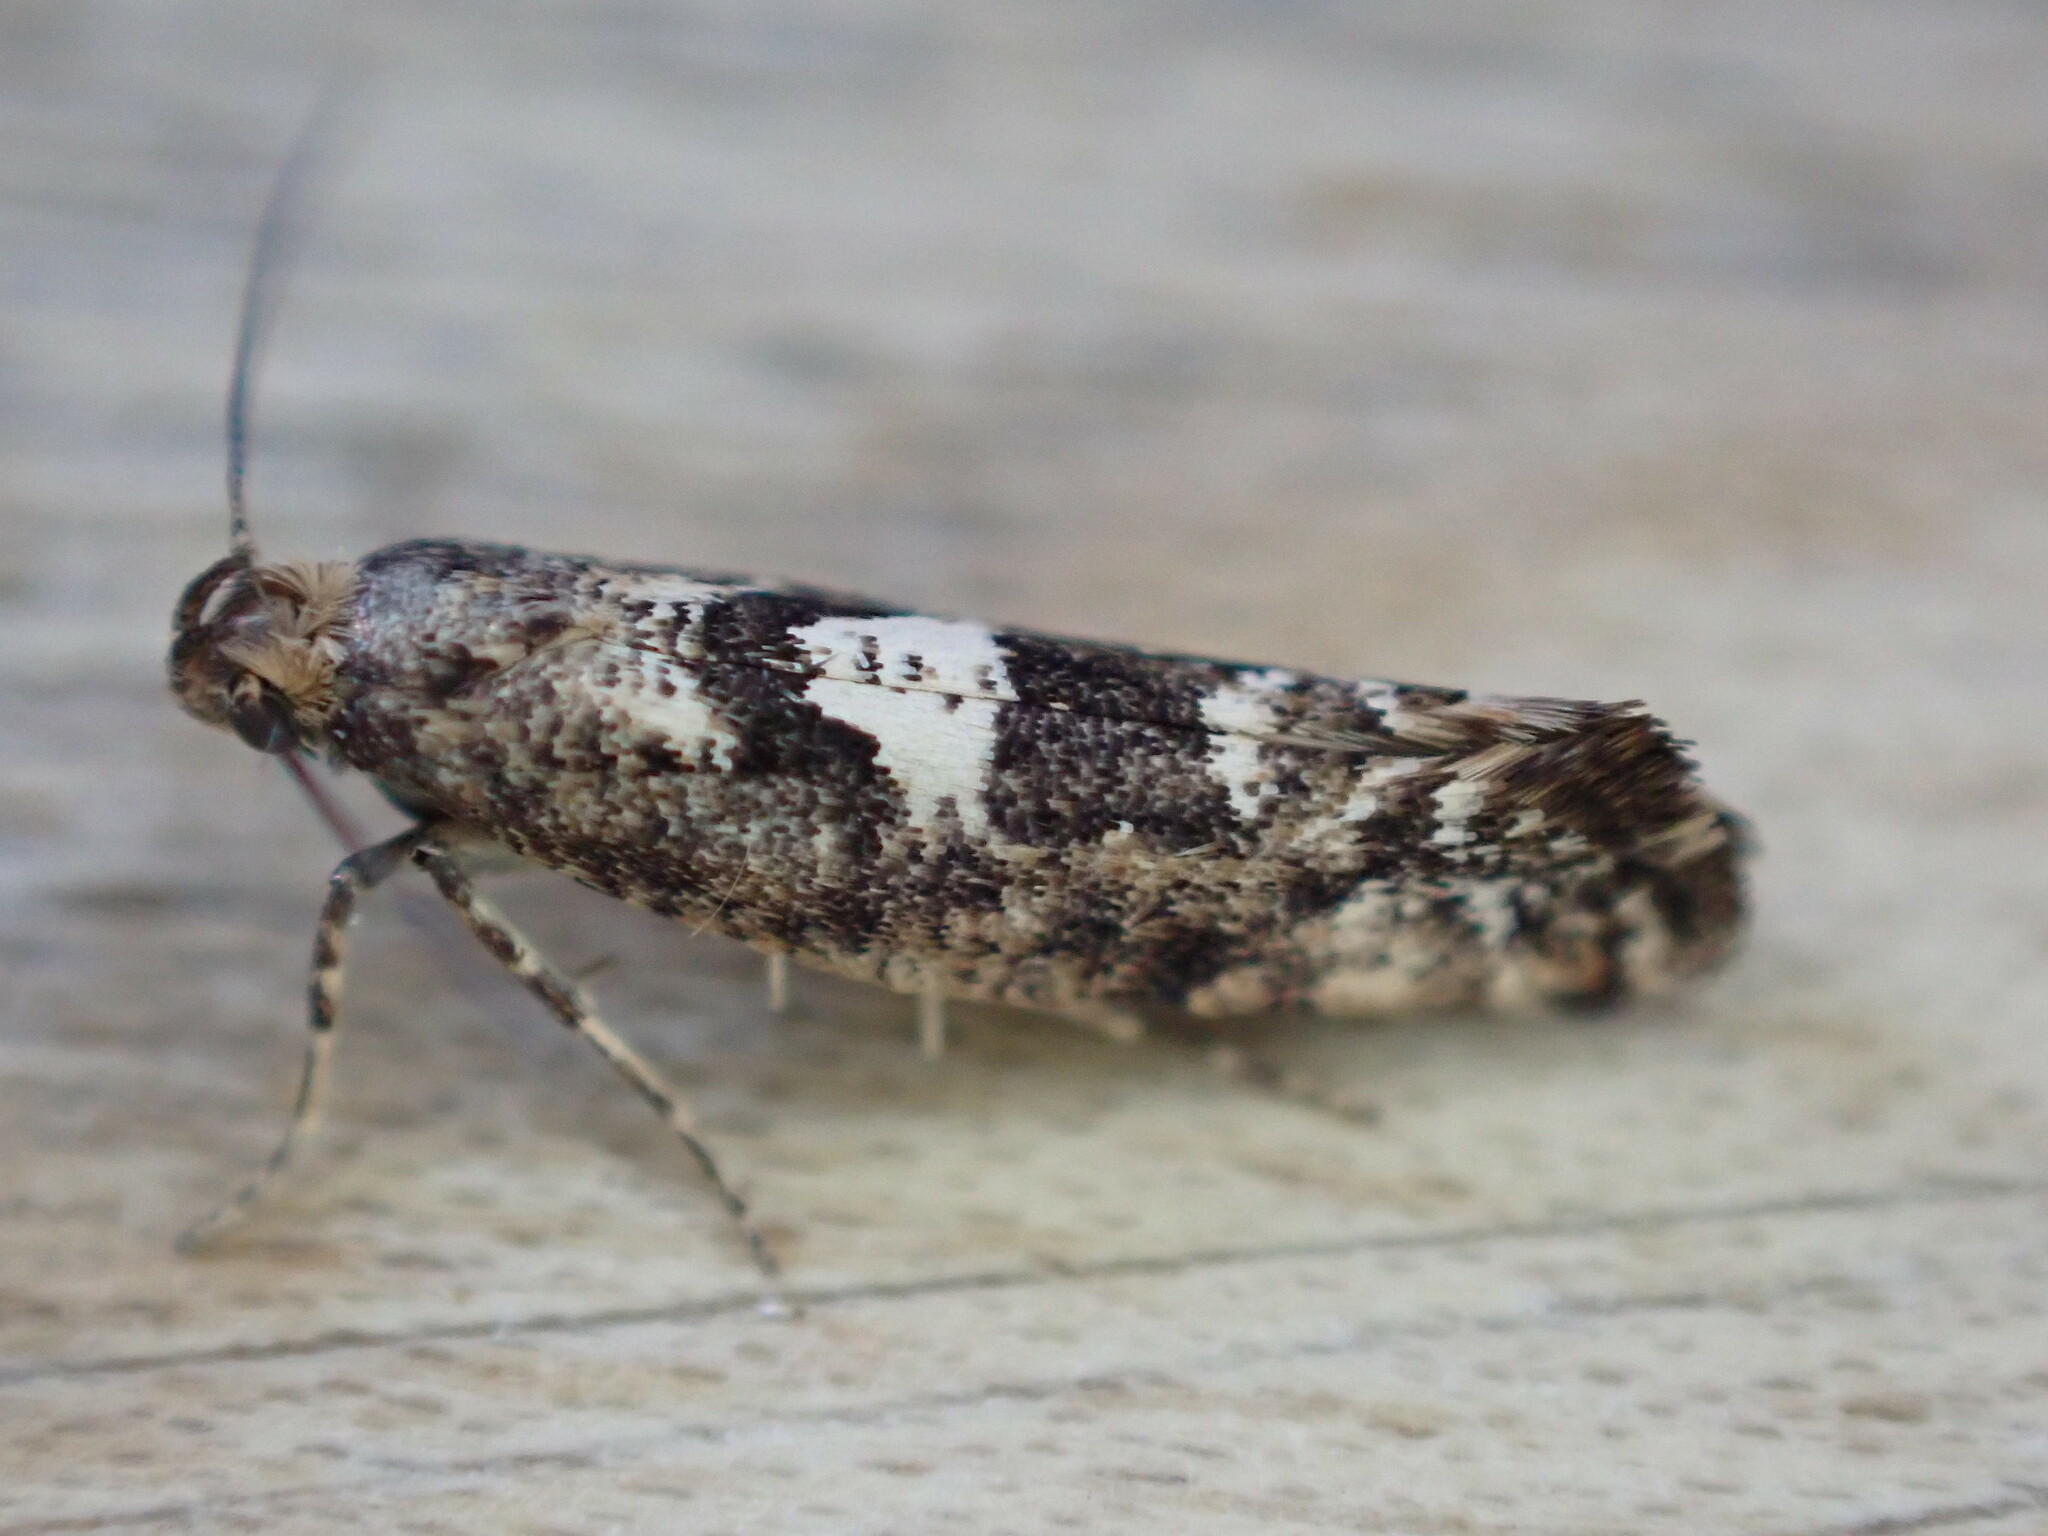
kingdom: Animalia
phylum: Arthropoda
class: Insecta
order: Lepidoptera
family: Glyphipterigidae
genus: Acrolepia
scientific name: Acrolepia assectella
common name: Onion leaf miner
